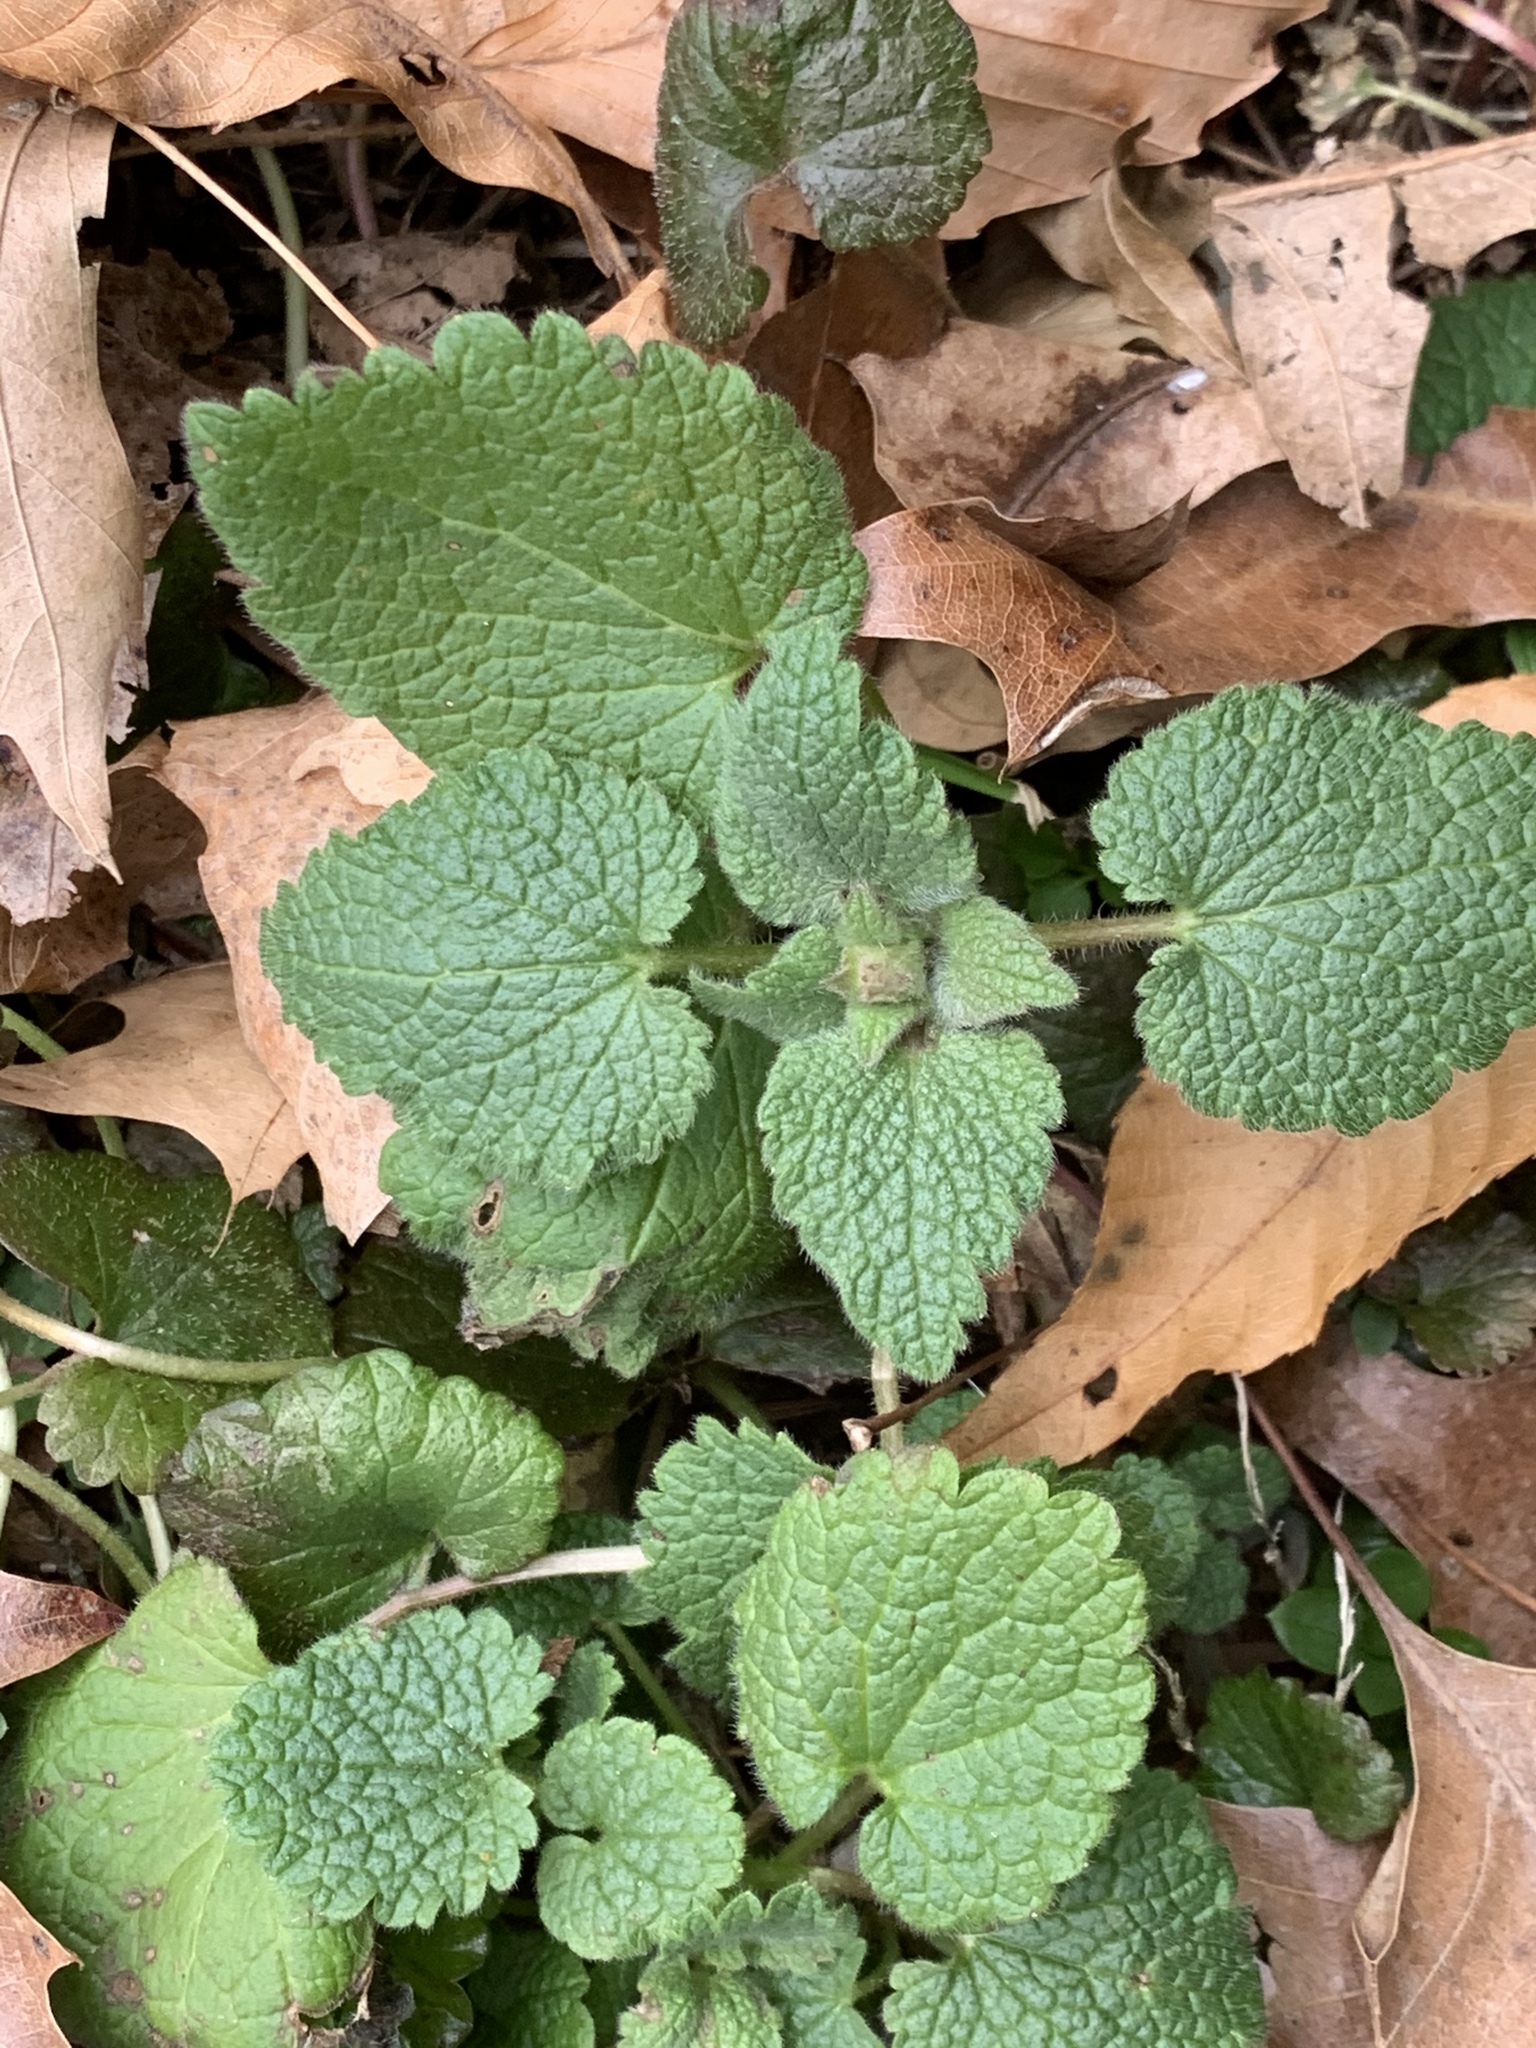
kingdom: Plantae
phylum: Tracheophyta
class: Magnoliopsida
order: Lamiales
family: Lamiaceae
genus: Lamium
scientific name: Lamium purpureum
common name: Red dead-nettle
